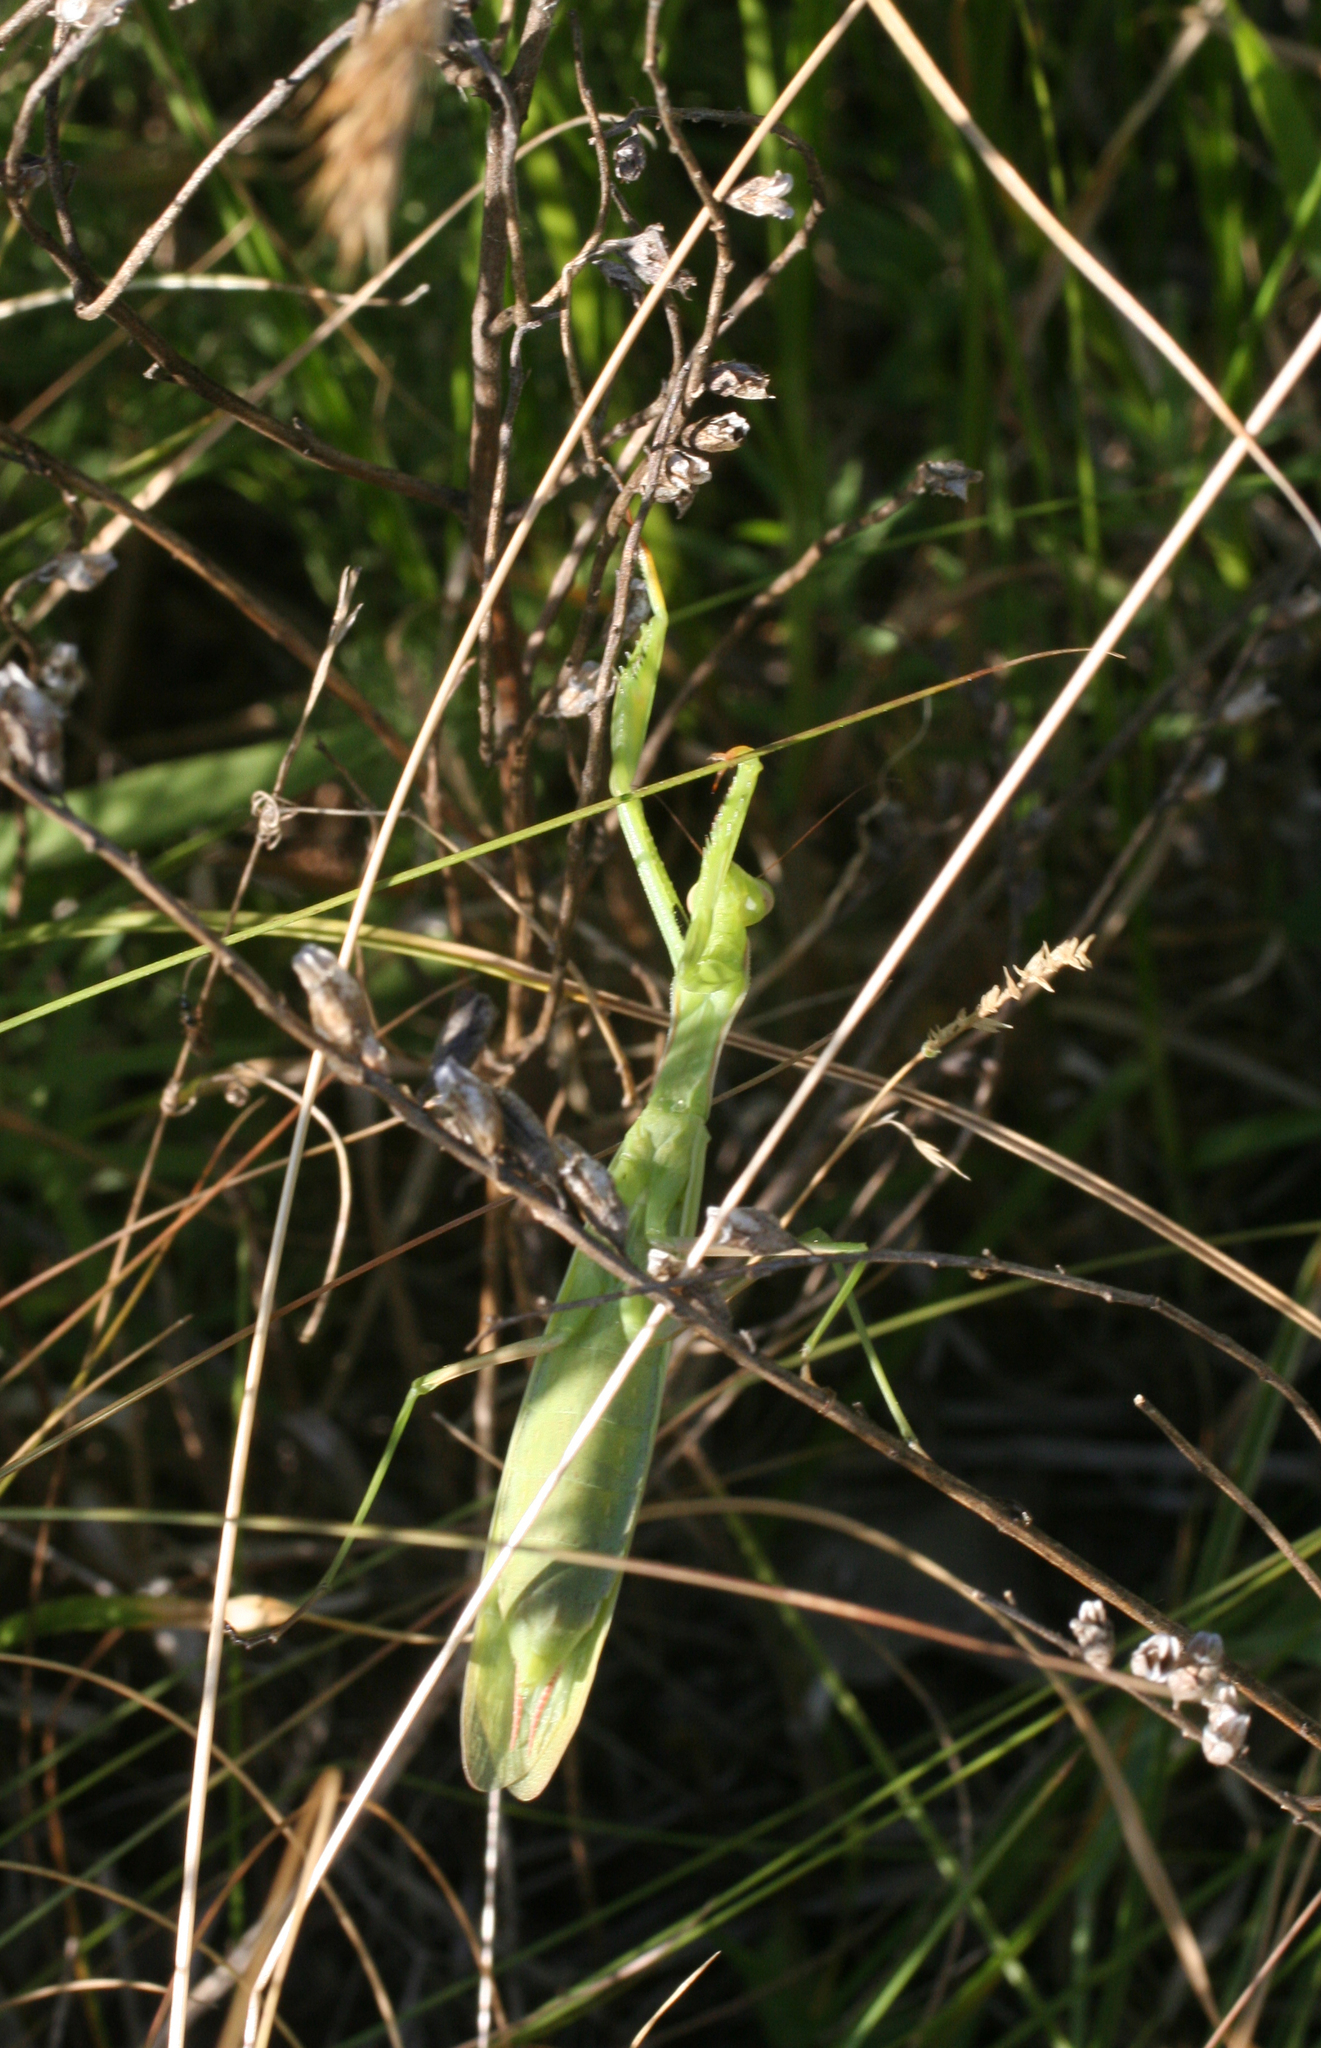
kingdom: Animalia
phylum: Arthropoda
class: Insecta
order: Mantodea
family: Mantidae
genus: Mantis
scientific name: Mantis religiosa
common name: Praying mantis
